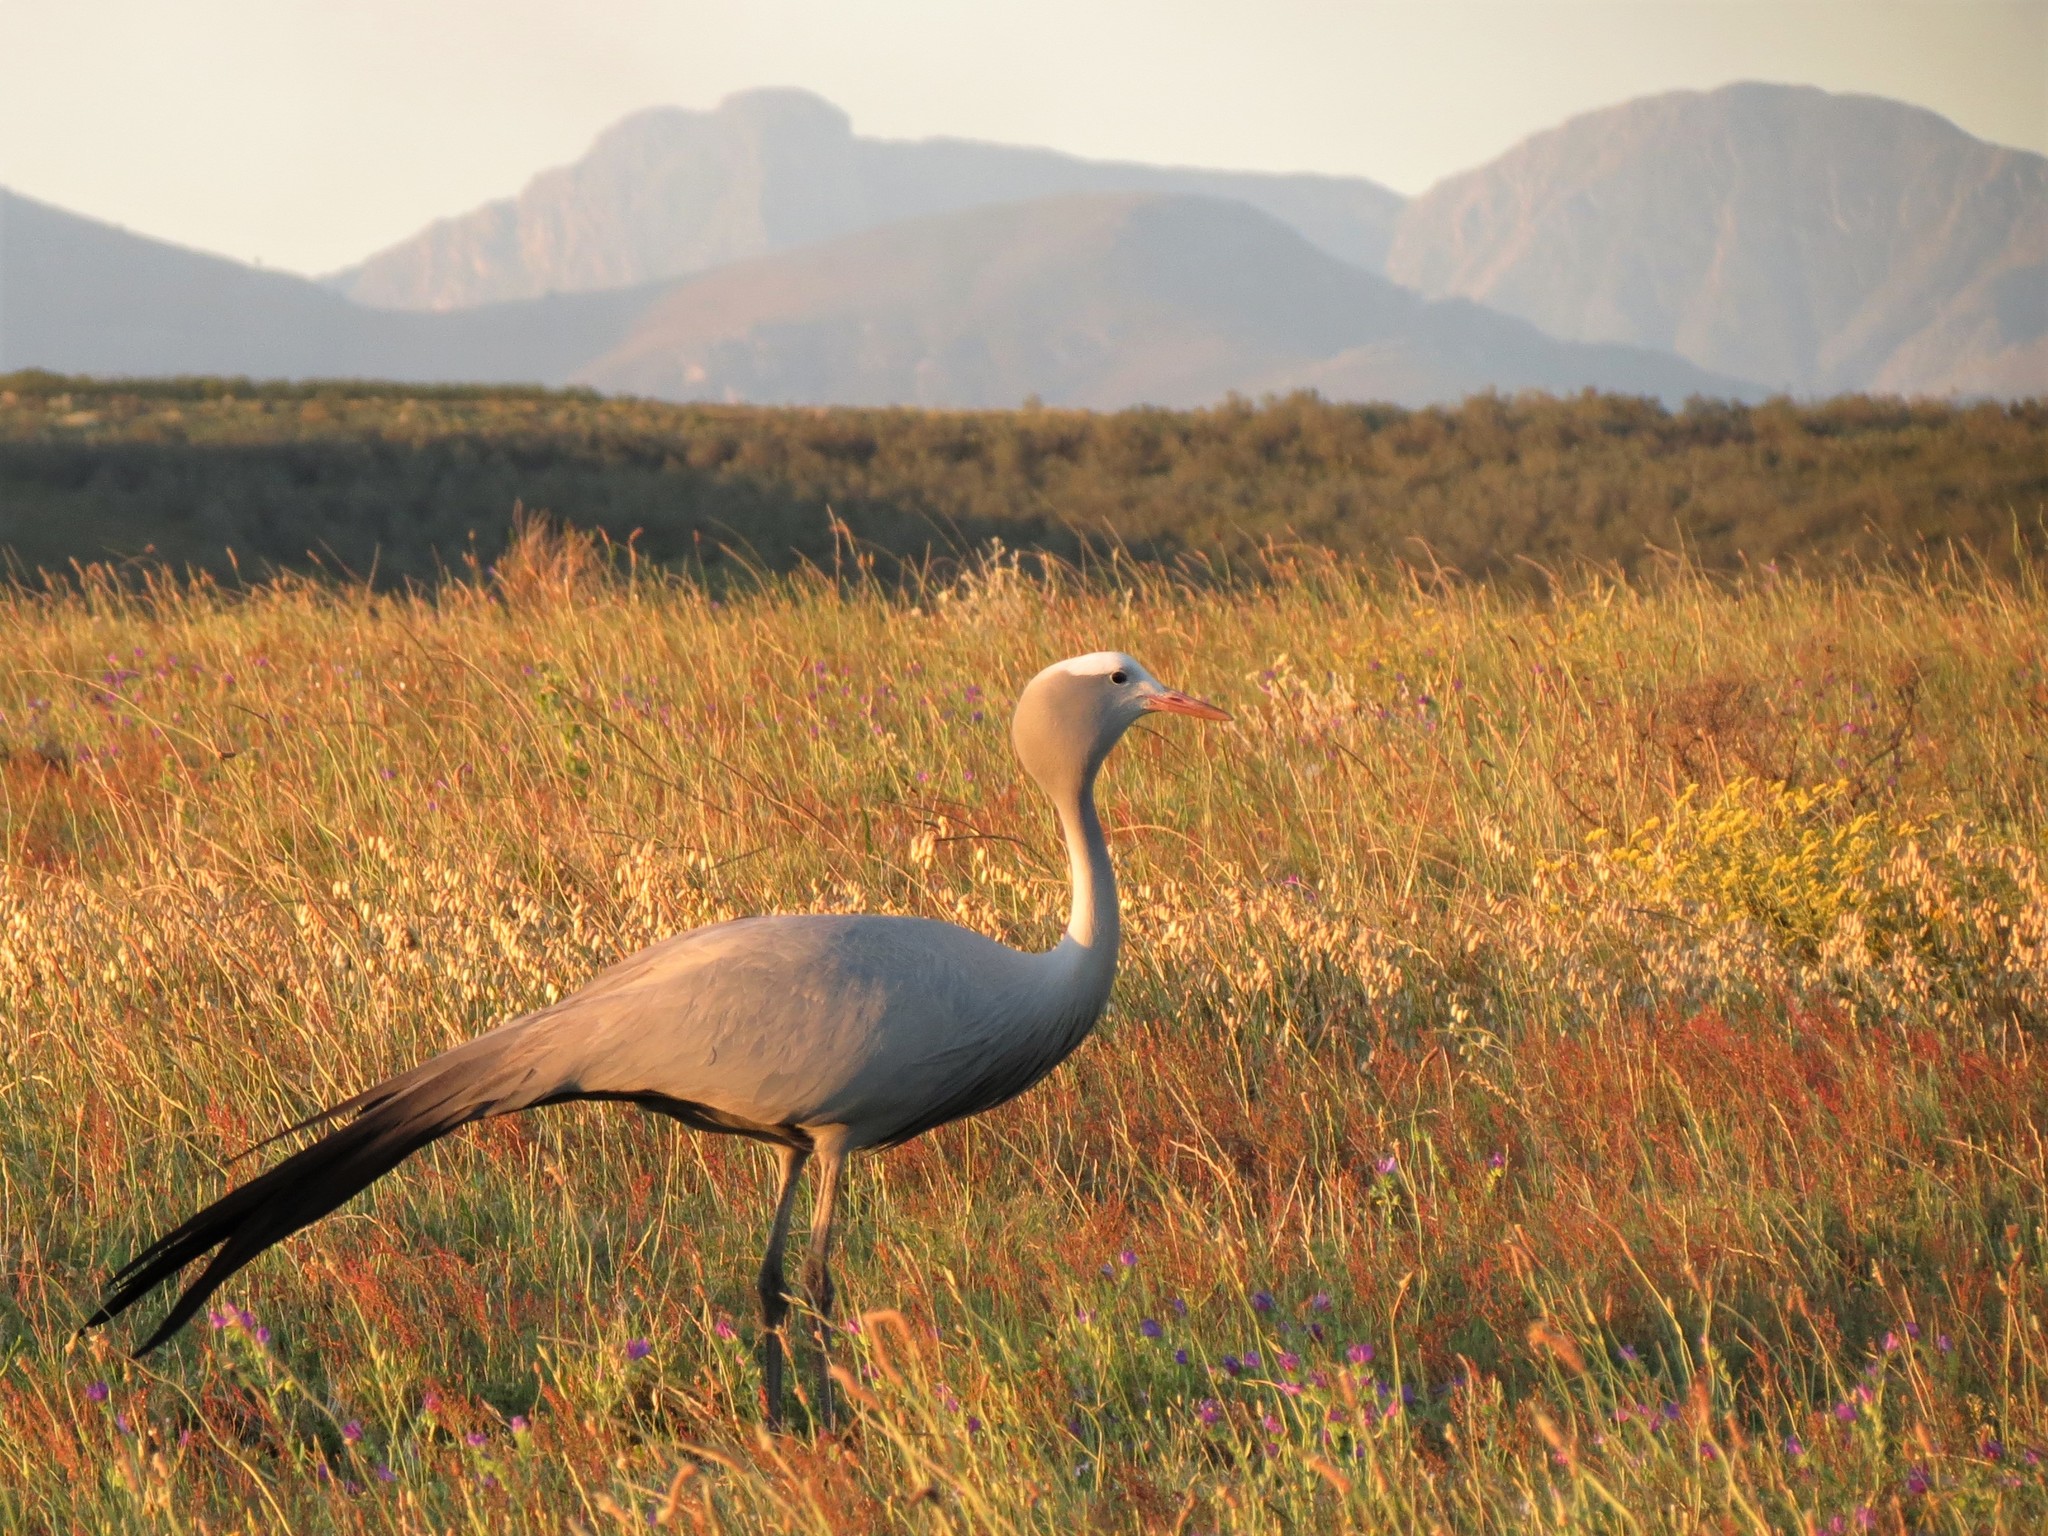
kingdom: Animalia
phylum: Chordata
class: Aves
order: Gruiformes
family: Gruidae
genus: Anthropoides
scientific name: Anthropoides paradiseus
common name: Blue crane
